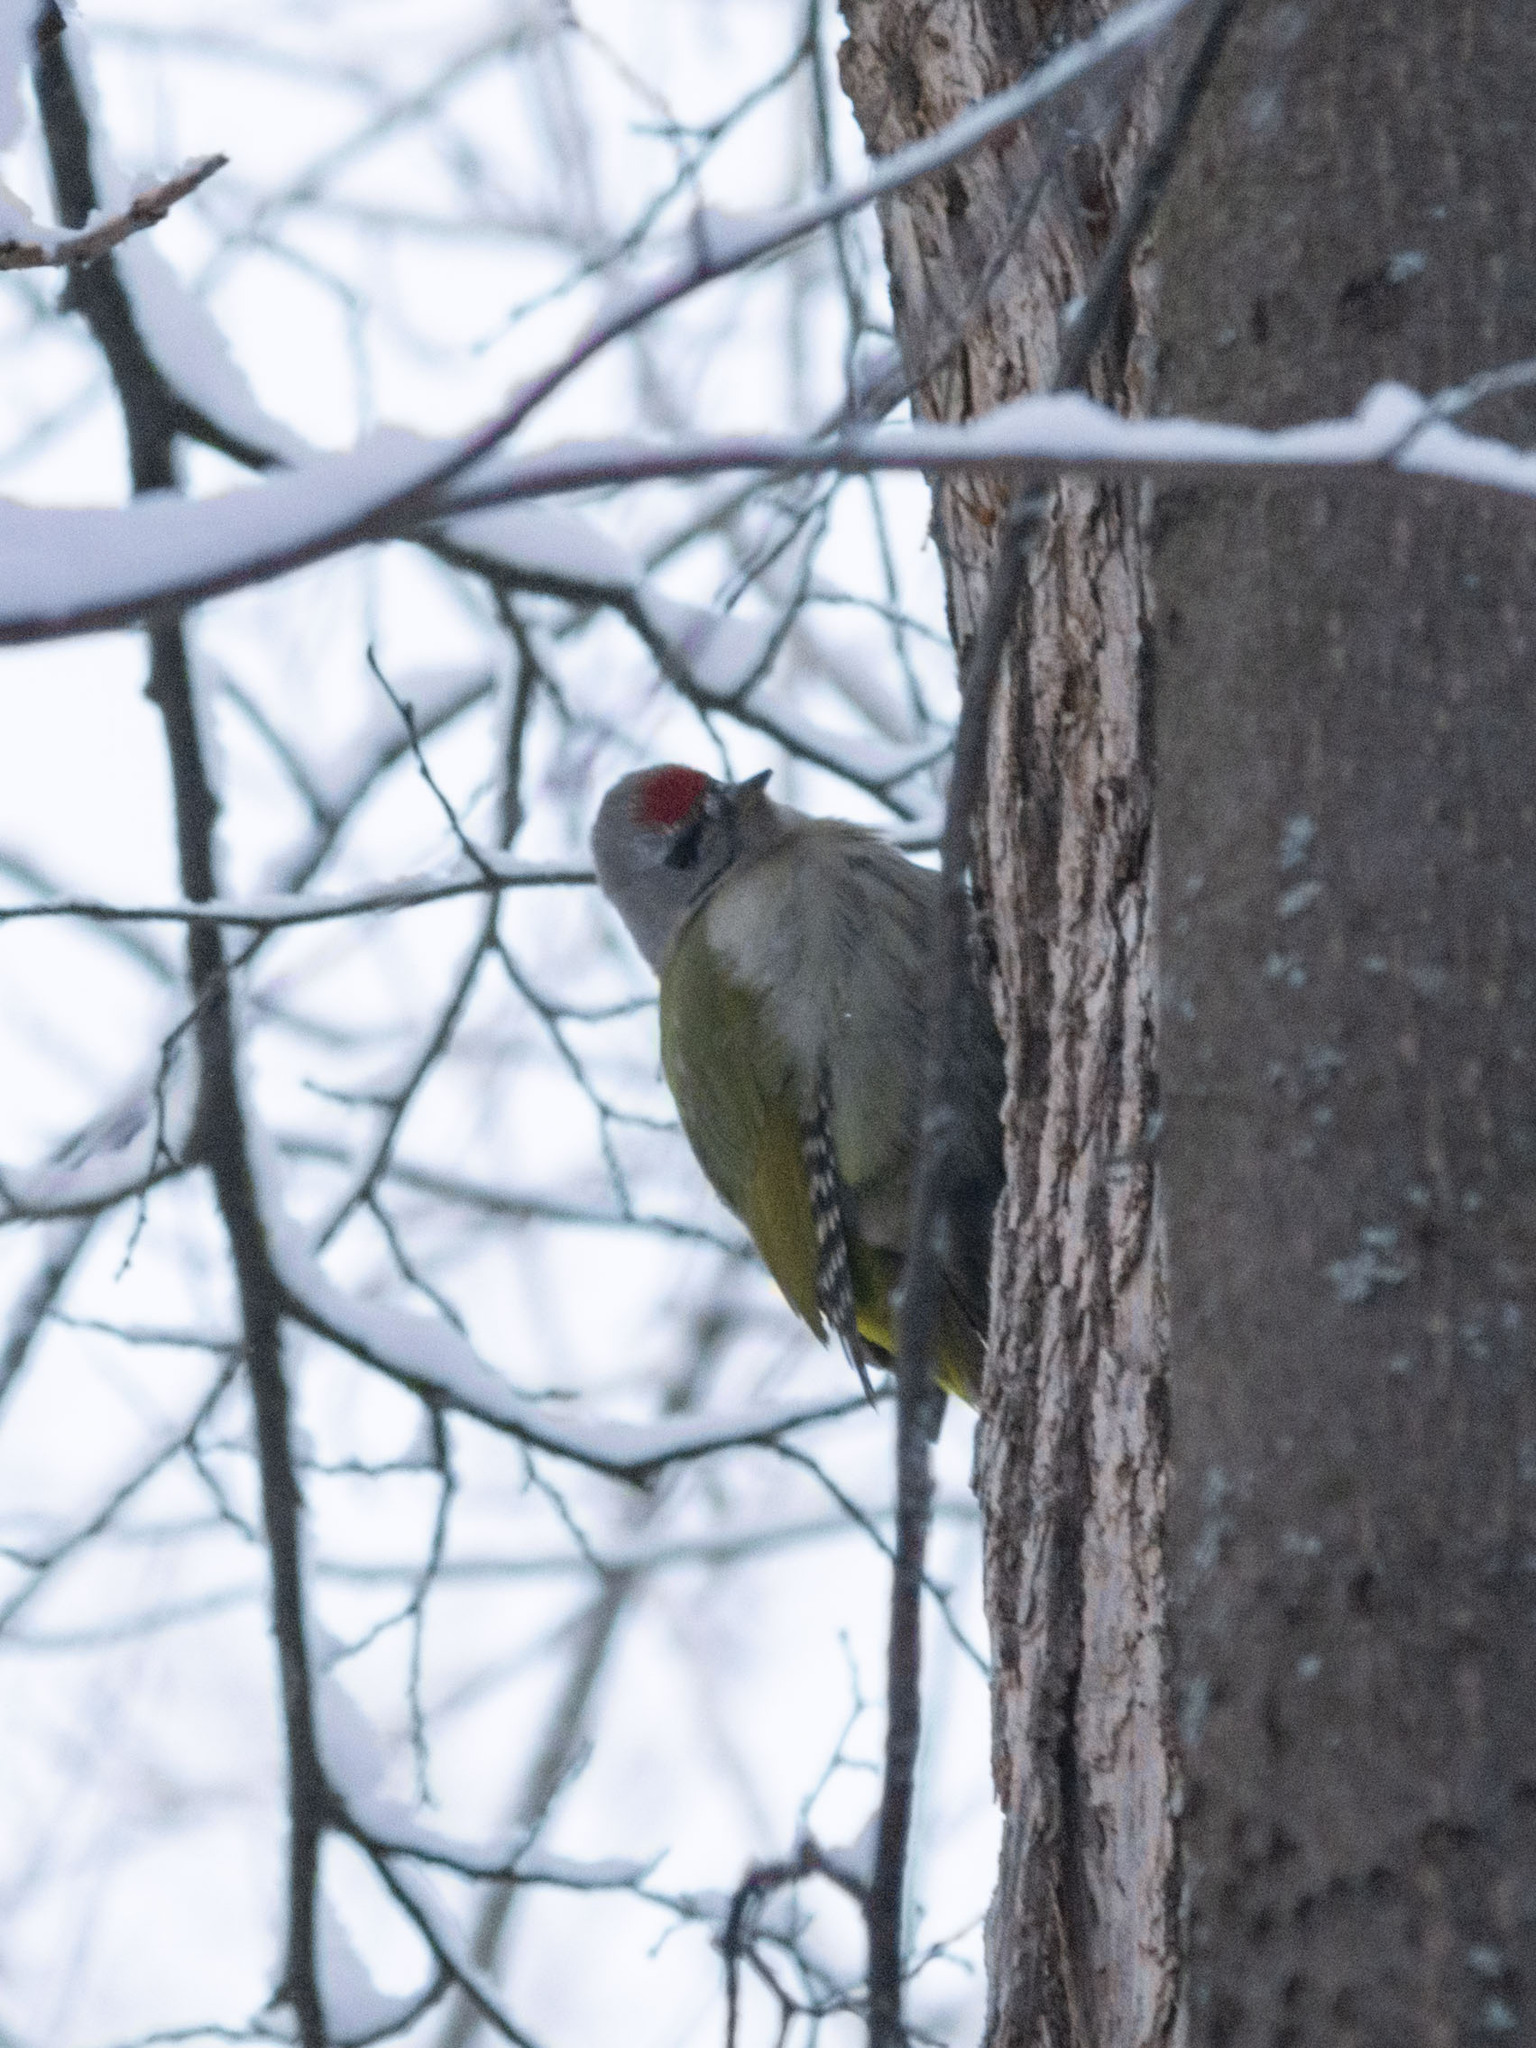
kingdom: Animalia
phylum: Chordata
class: Aves
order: Piciformes
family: Picidae
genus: Picus
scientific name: Picus canus
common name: Grey-headed woodpecker
